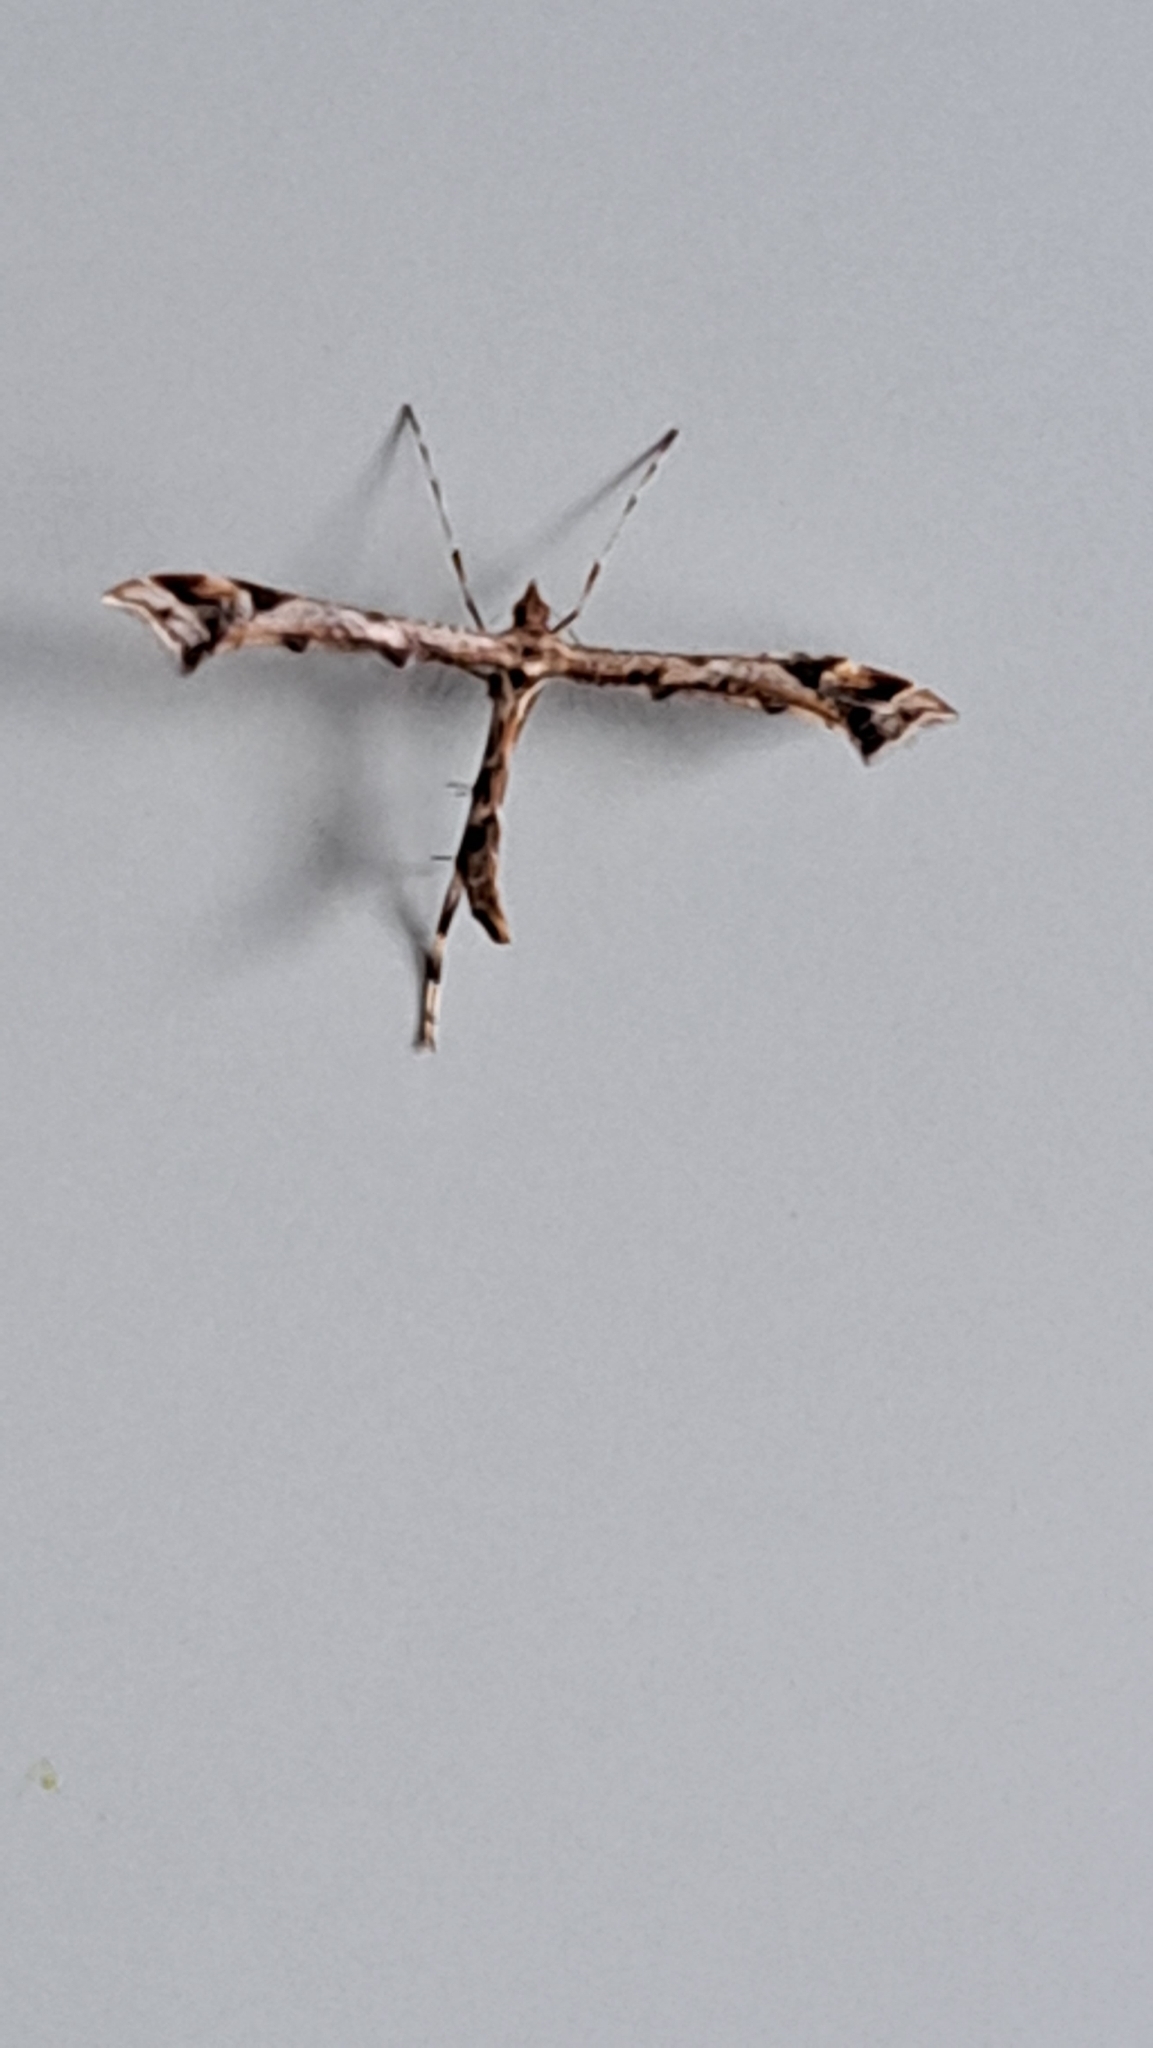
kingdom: Animalia
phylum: Arthropoda
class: Insecta
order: Lepidoptera
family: Pterophoridae
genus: Amblyptilia
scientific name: Amblyptilia acanthadactyla
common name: Beautiful plume
